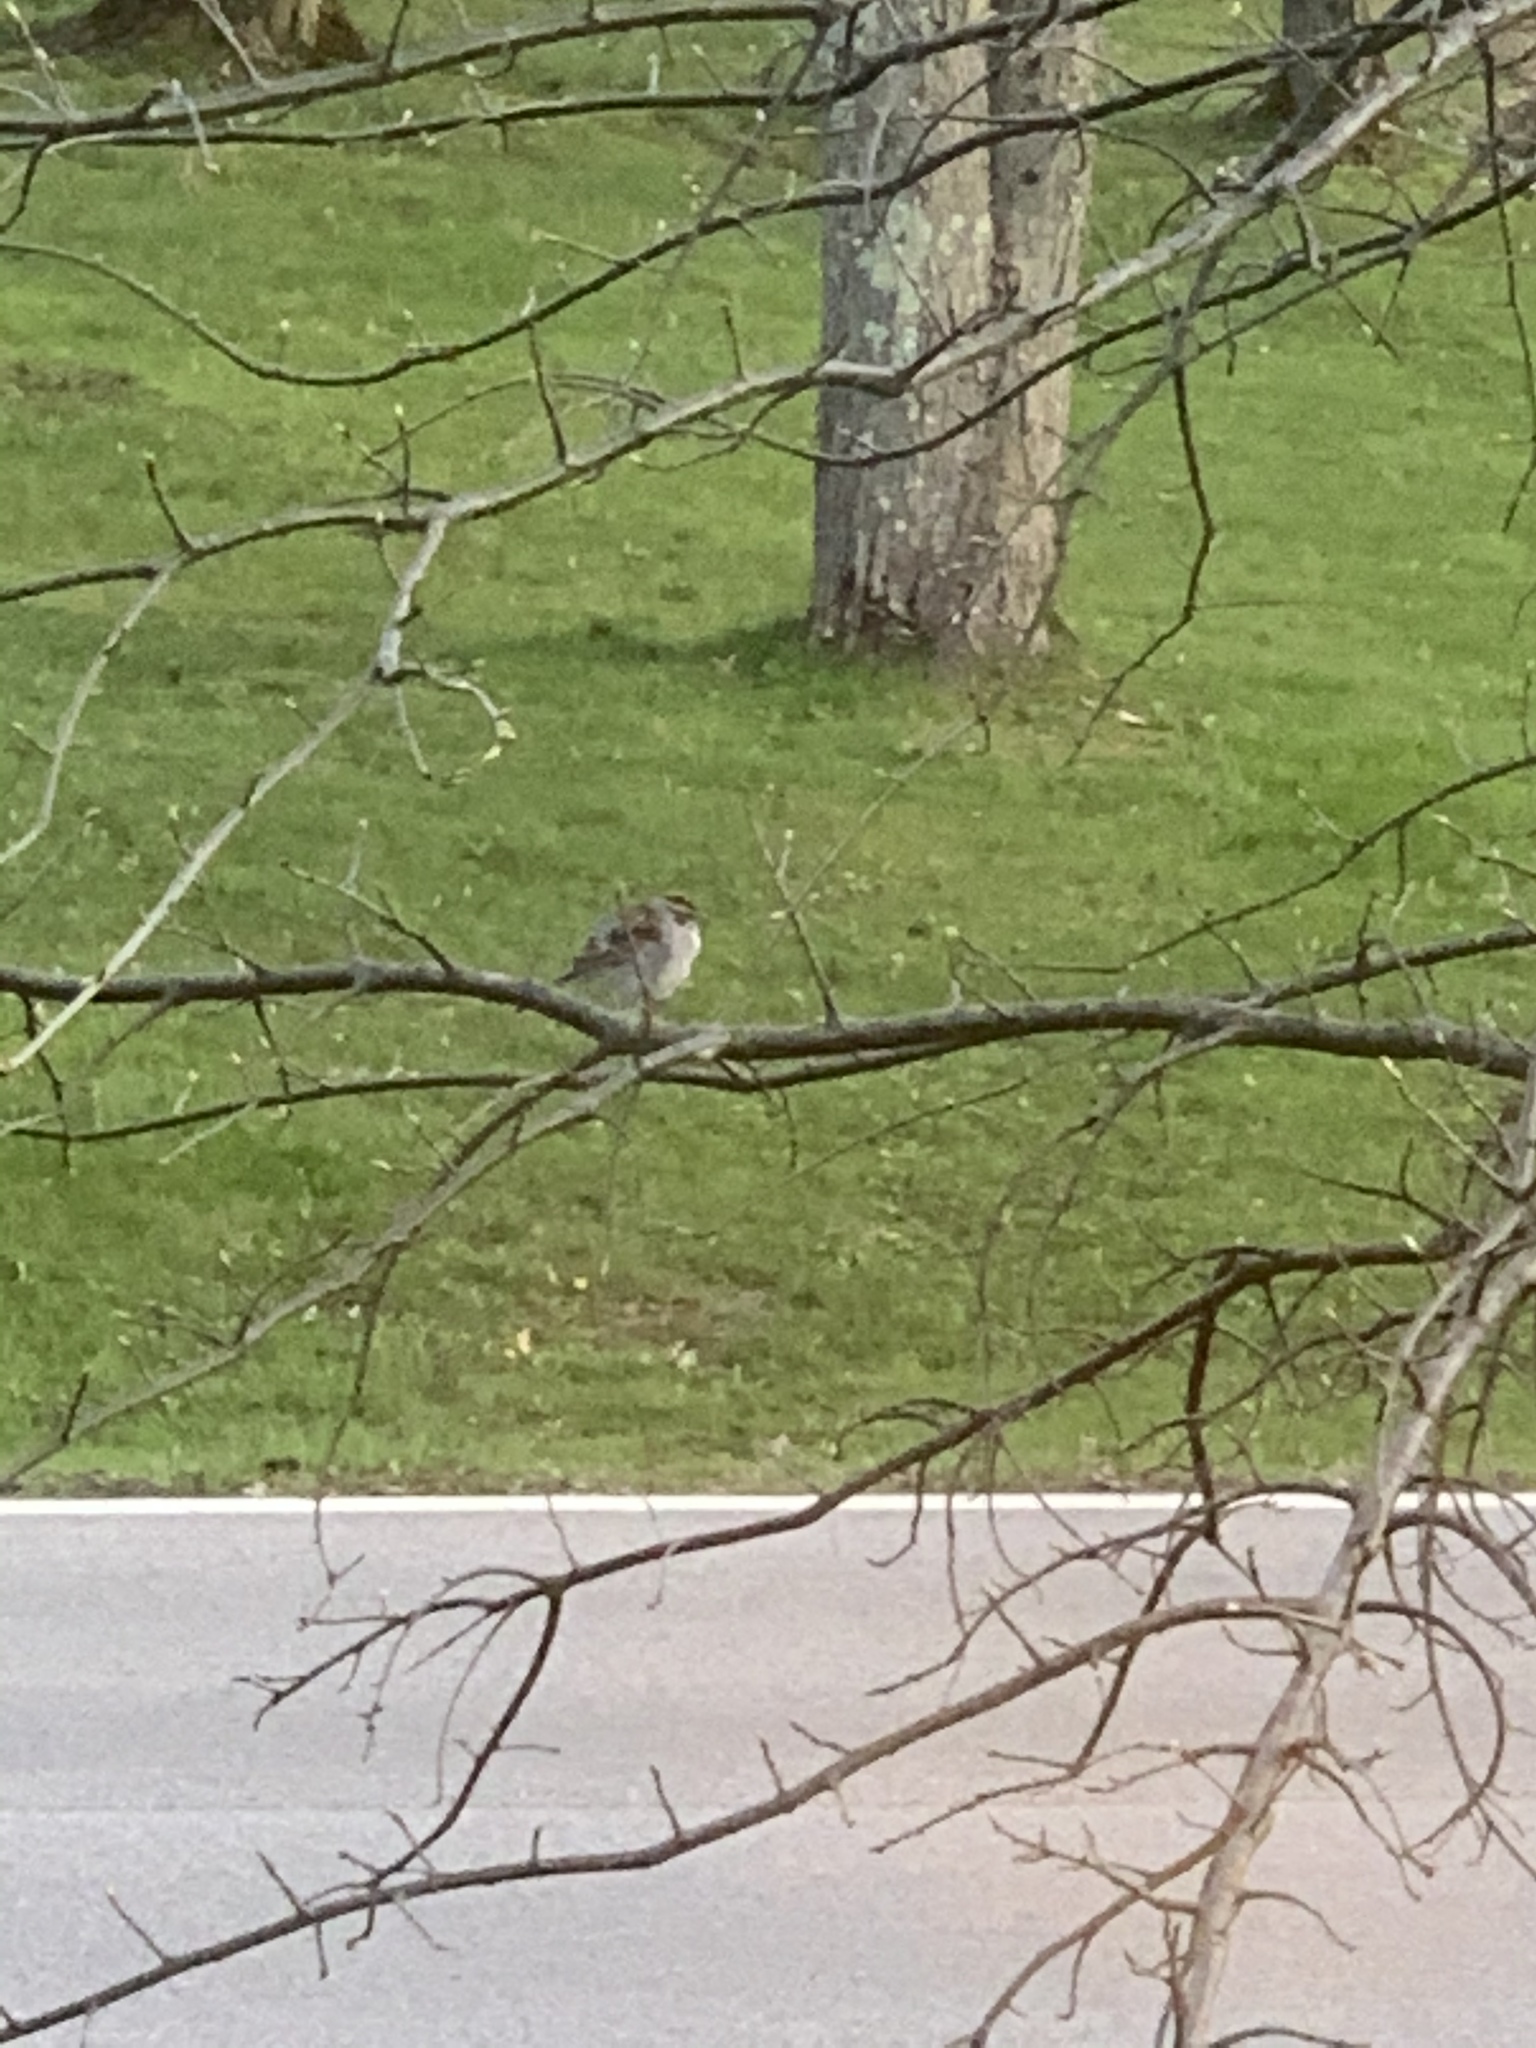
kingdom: Animalia
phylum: Chordata
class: Aves
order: Passeriformes
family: Passerellidae
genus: Spizella
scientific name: Spizella passerina
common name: Chipping sparrow
